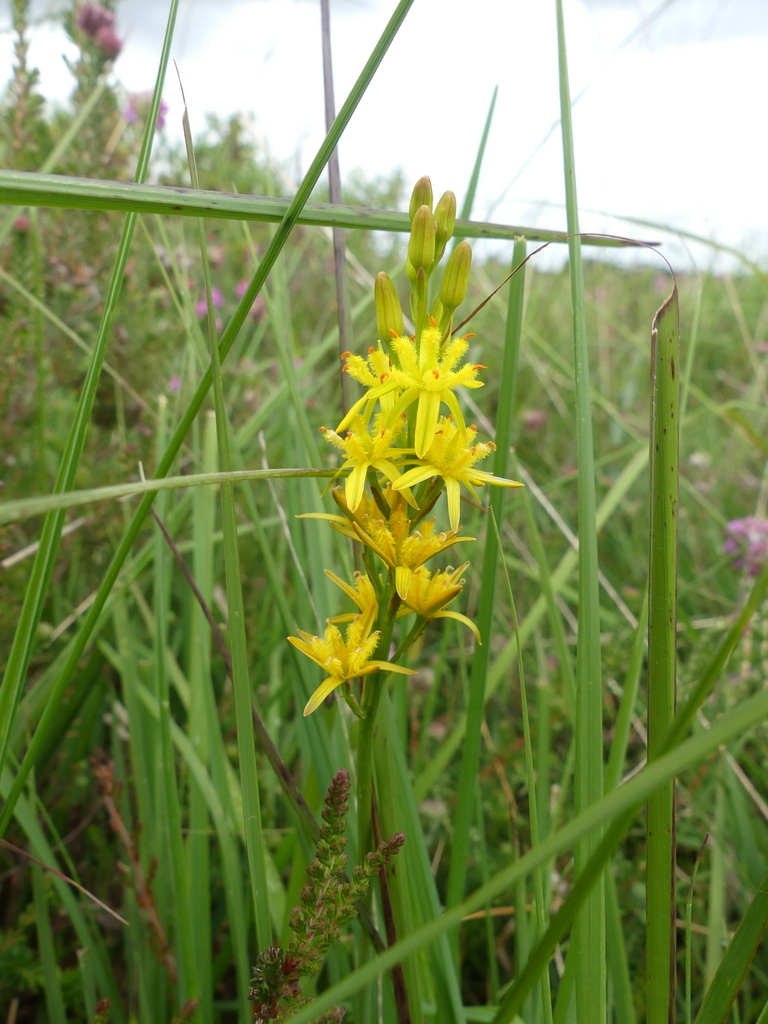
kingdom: Plantae
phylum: Tracheophyta
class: Liliopsida
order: Dioscoreales
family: Nartheciaceae
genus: Narthecium
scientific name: Narthecium ossifragum
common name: Bog asphodel
